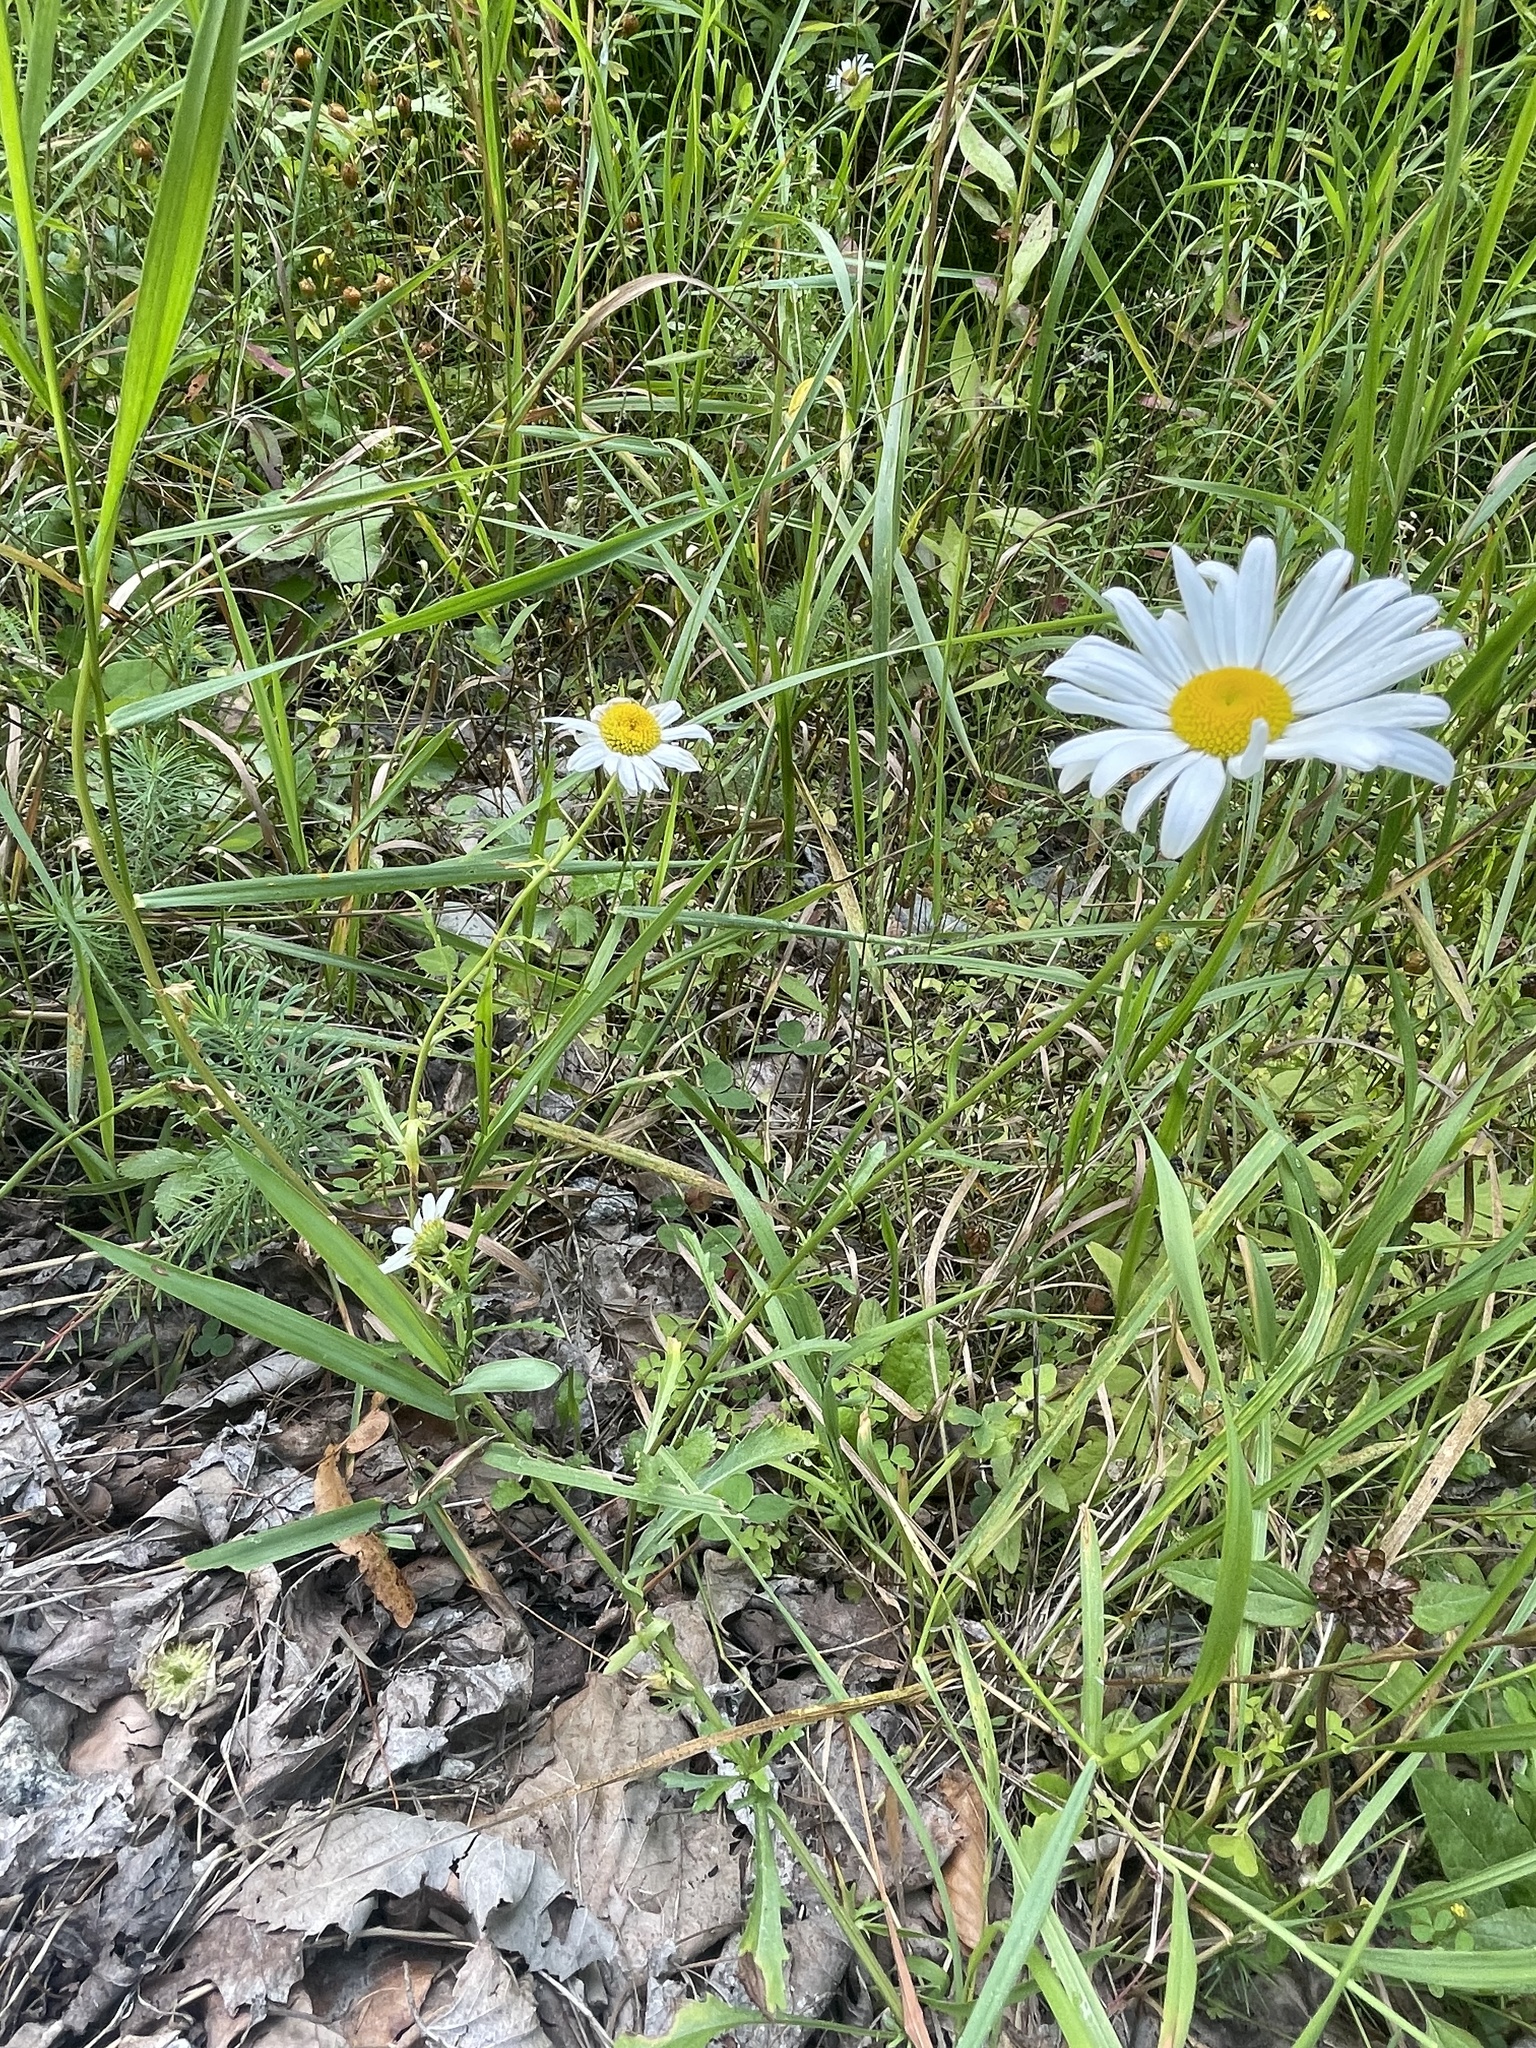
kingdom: Plantae
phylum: Tracheophyta
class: Magnoliopsida
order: Asterales
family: Asteraceae
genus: Leucanthemum
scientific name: Leucanthemum vulgare
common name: Oxeye daisy
